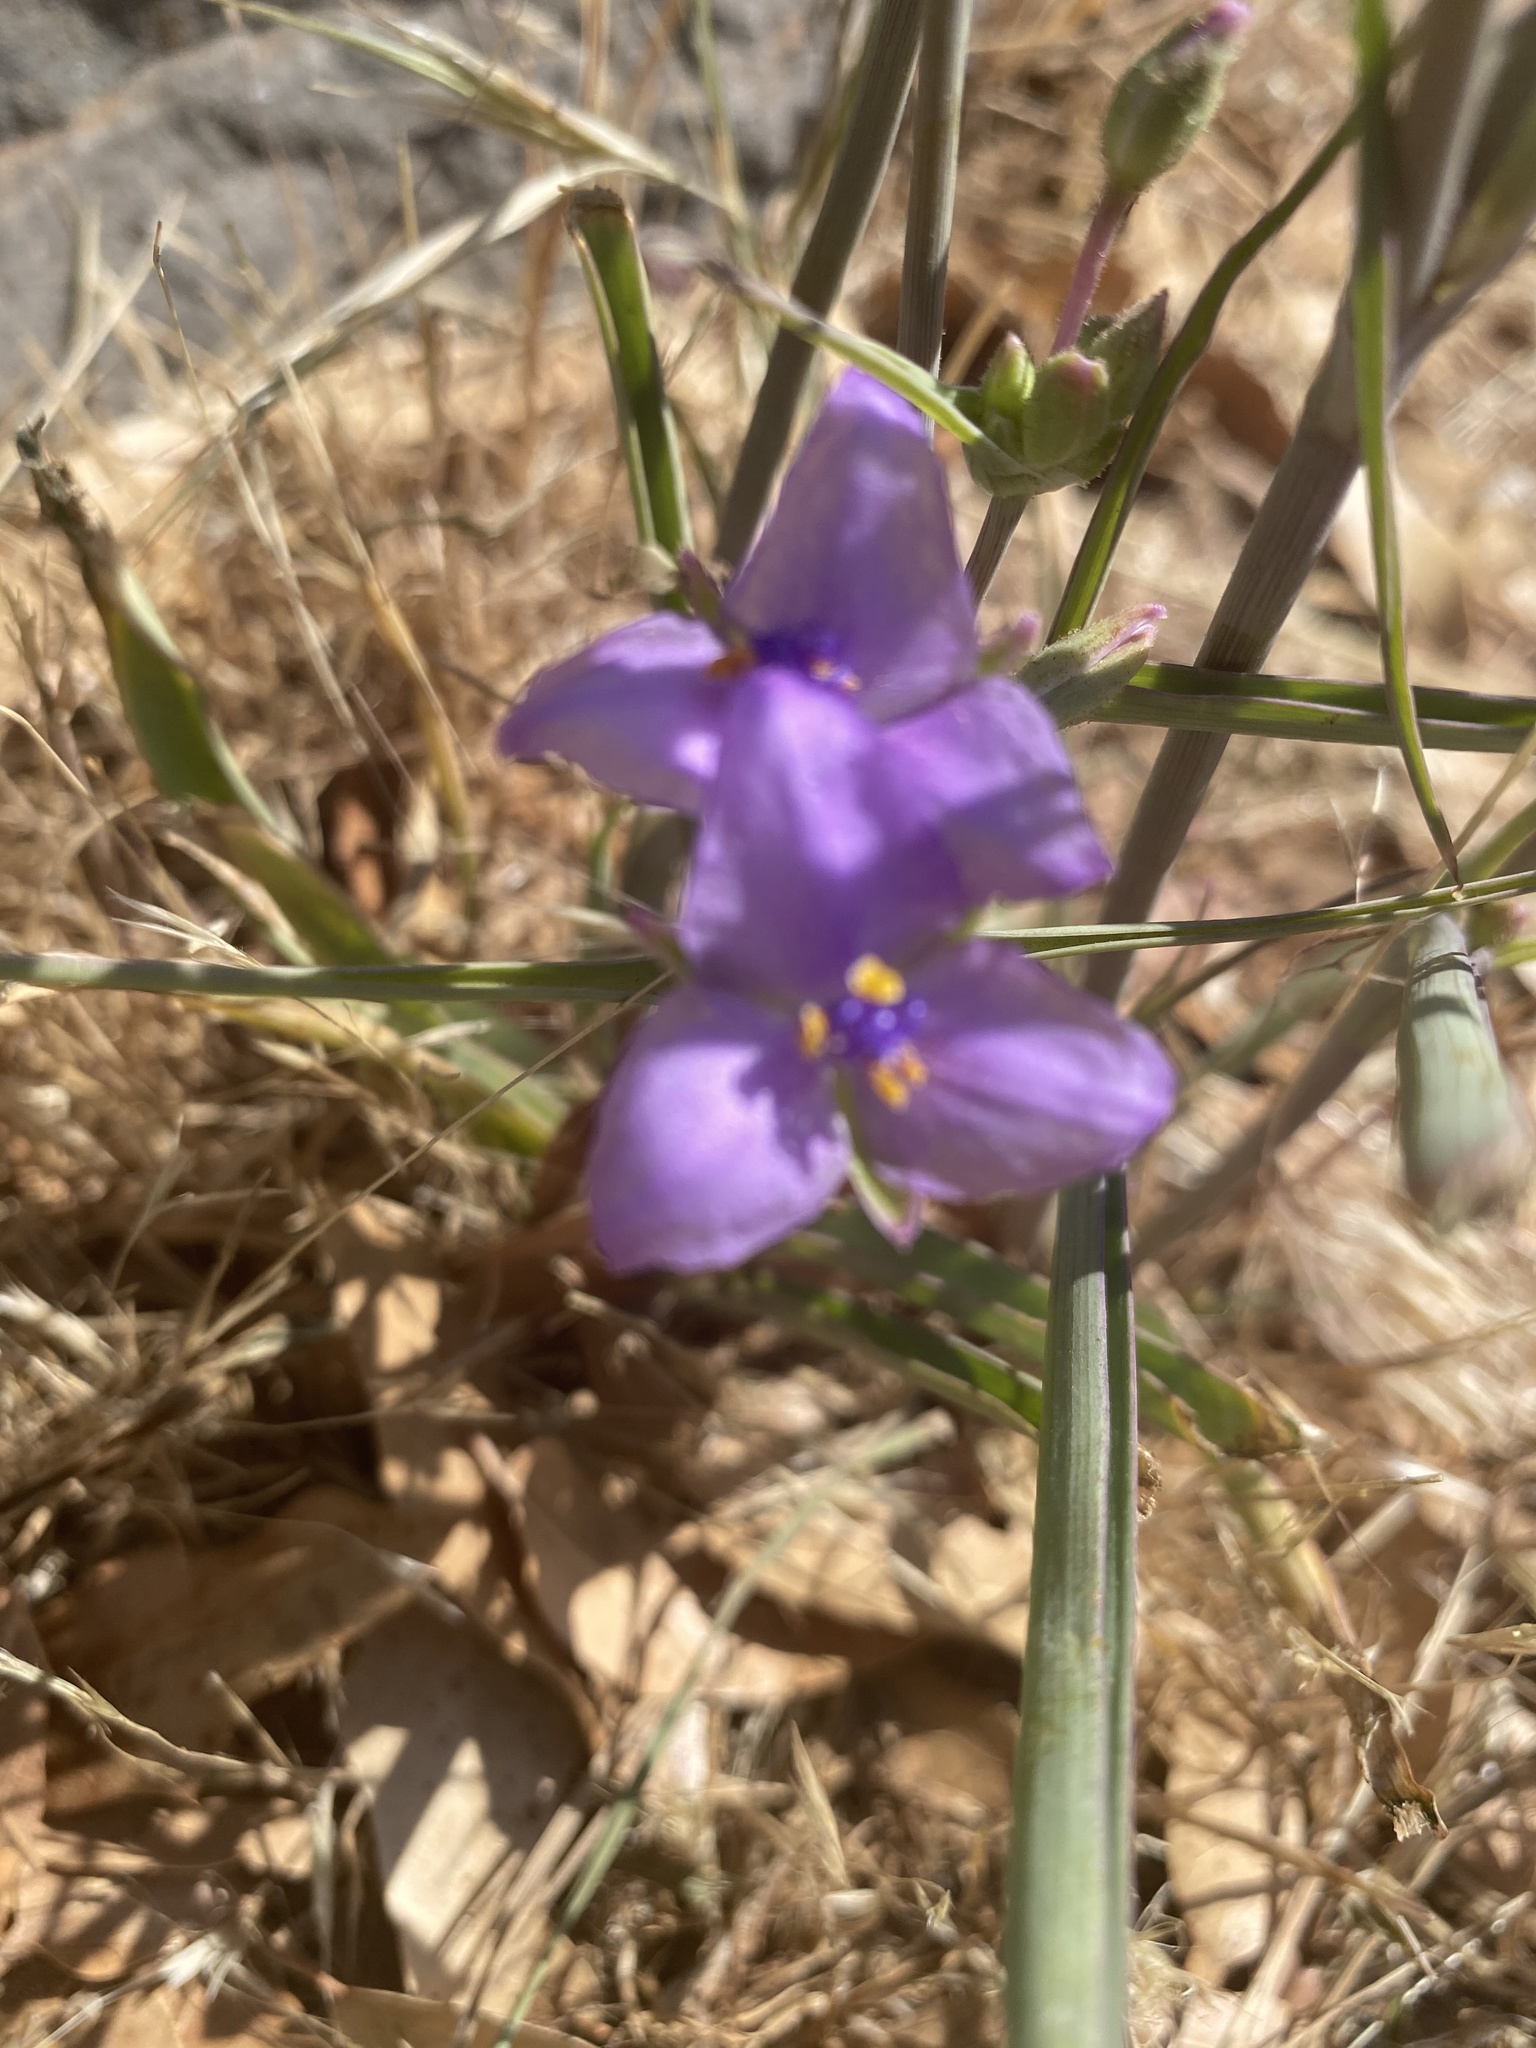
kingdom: Plantae
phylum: Tracheophyta
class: Liliopsida
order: Commelinales
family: Commelinaceae
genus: Tradescantia
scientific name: Tradescantia occidentalis
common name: Prairie spiderwort
